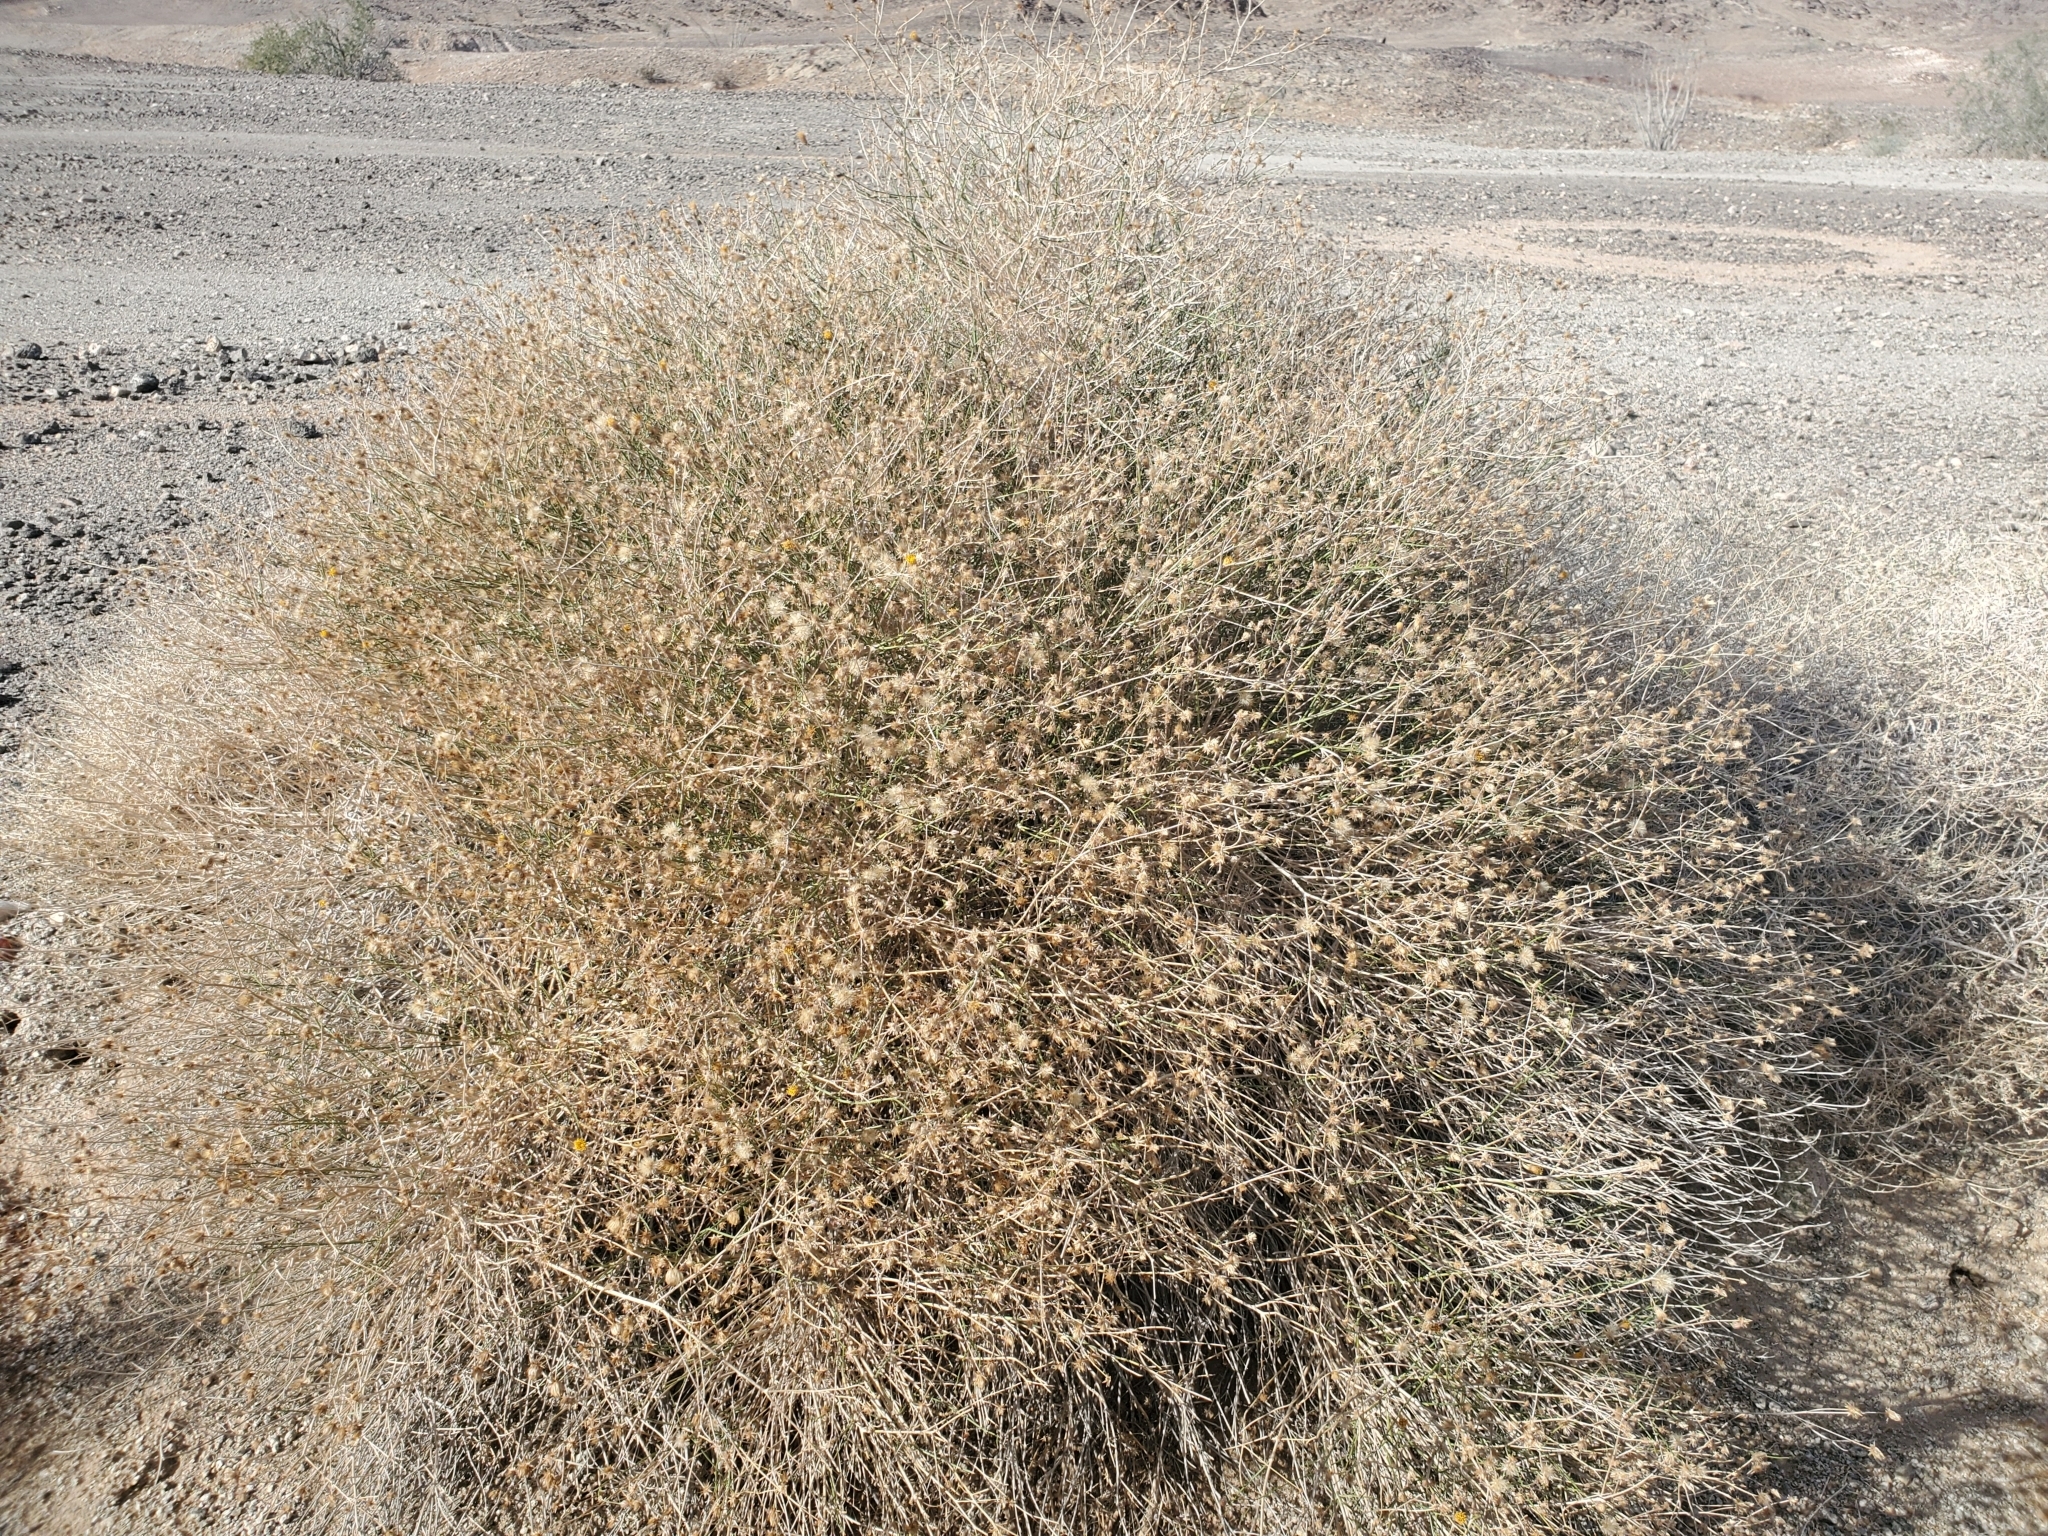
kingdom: Plantae
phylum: Tracheophyta
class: Magnoliopsida
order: Asterales
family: Asteraceae
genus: Bebbia
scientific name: Bebbia juncea
